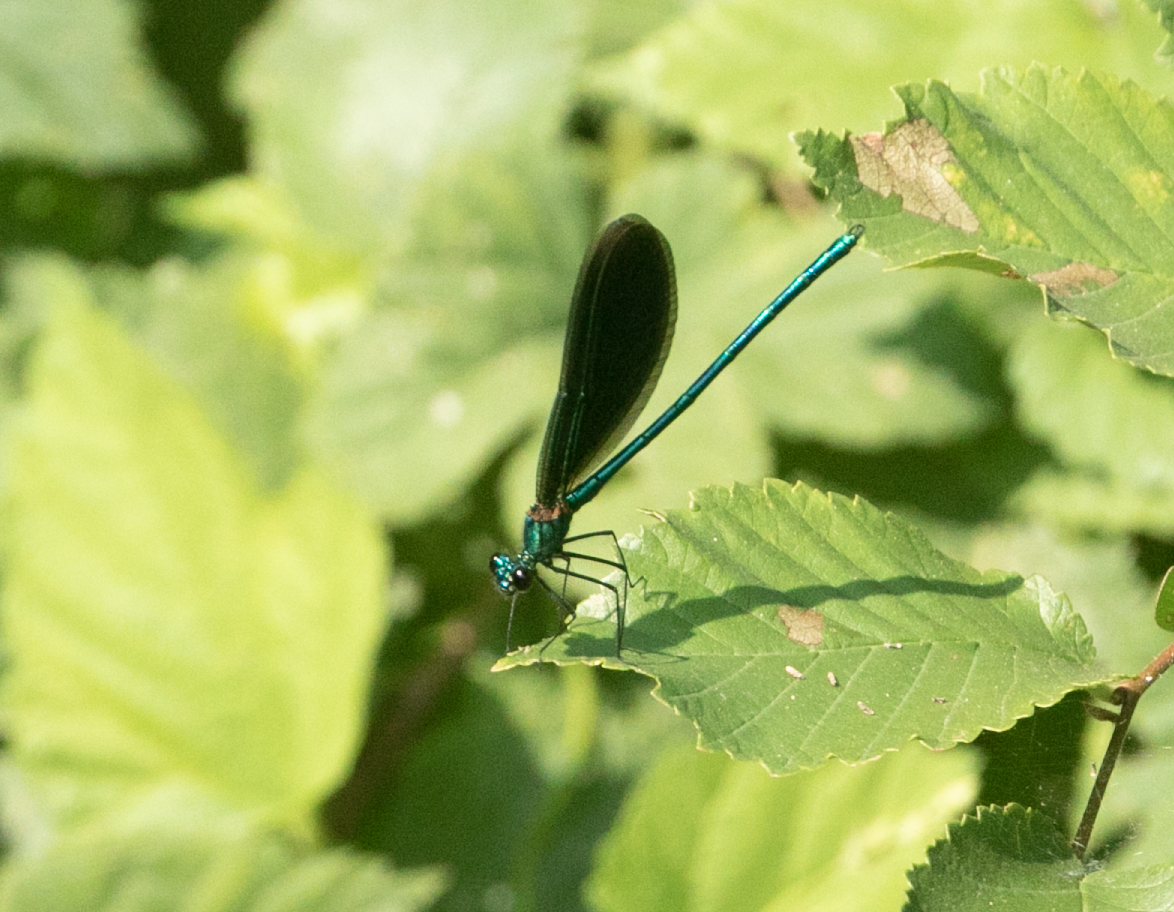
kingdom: Animalia
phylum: Arthropoda
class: Insecta
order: Odonata
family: Calopterygidae
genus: Calopteryx
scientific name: Calopteryx virgo
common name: Beautiful demoiselle
